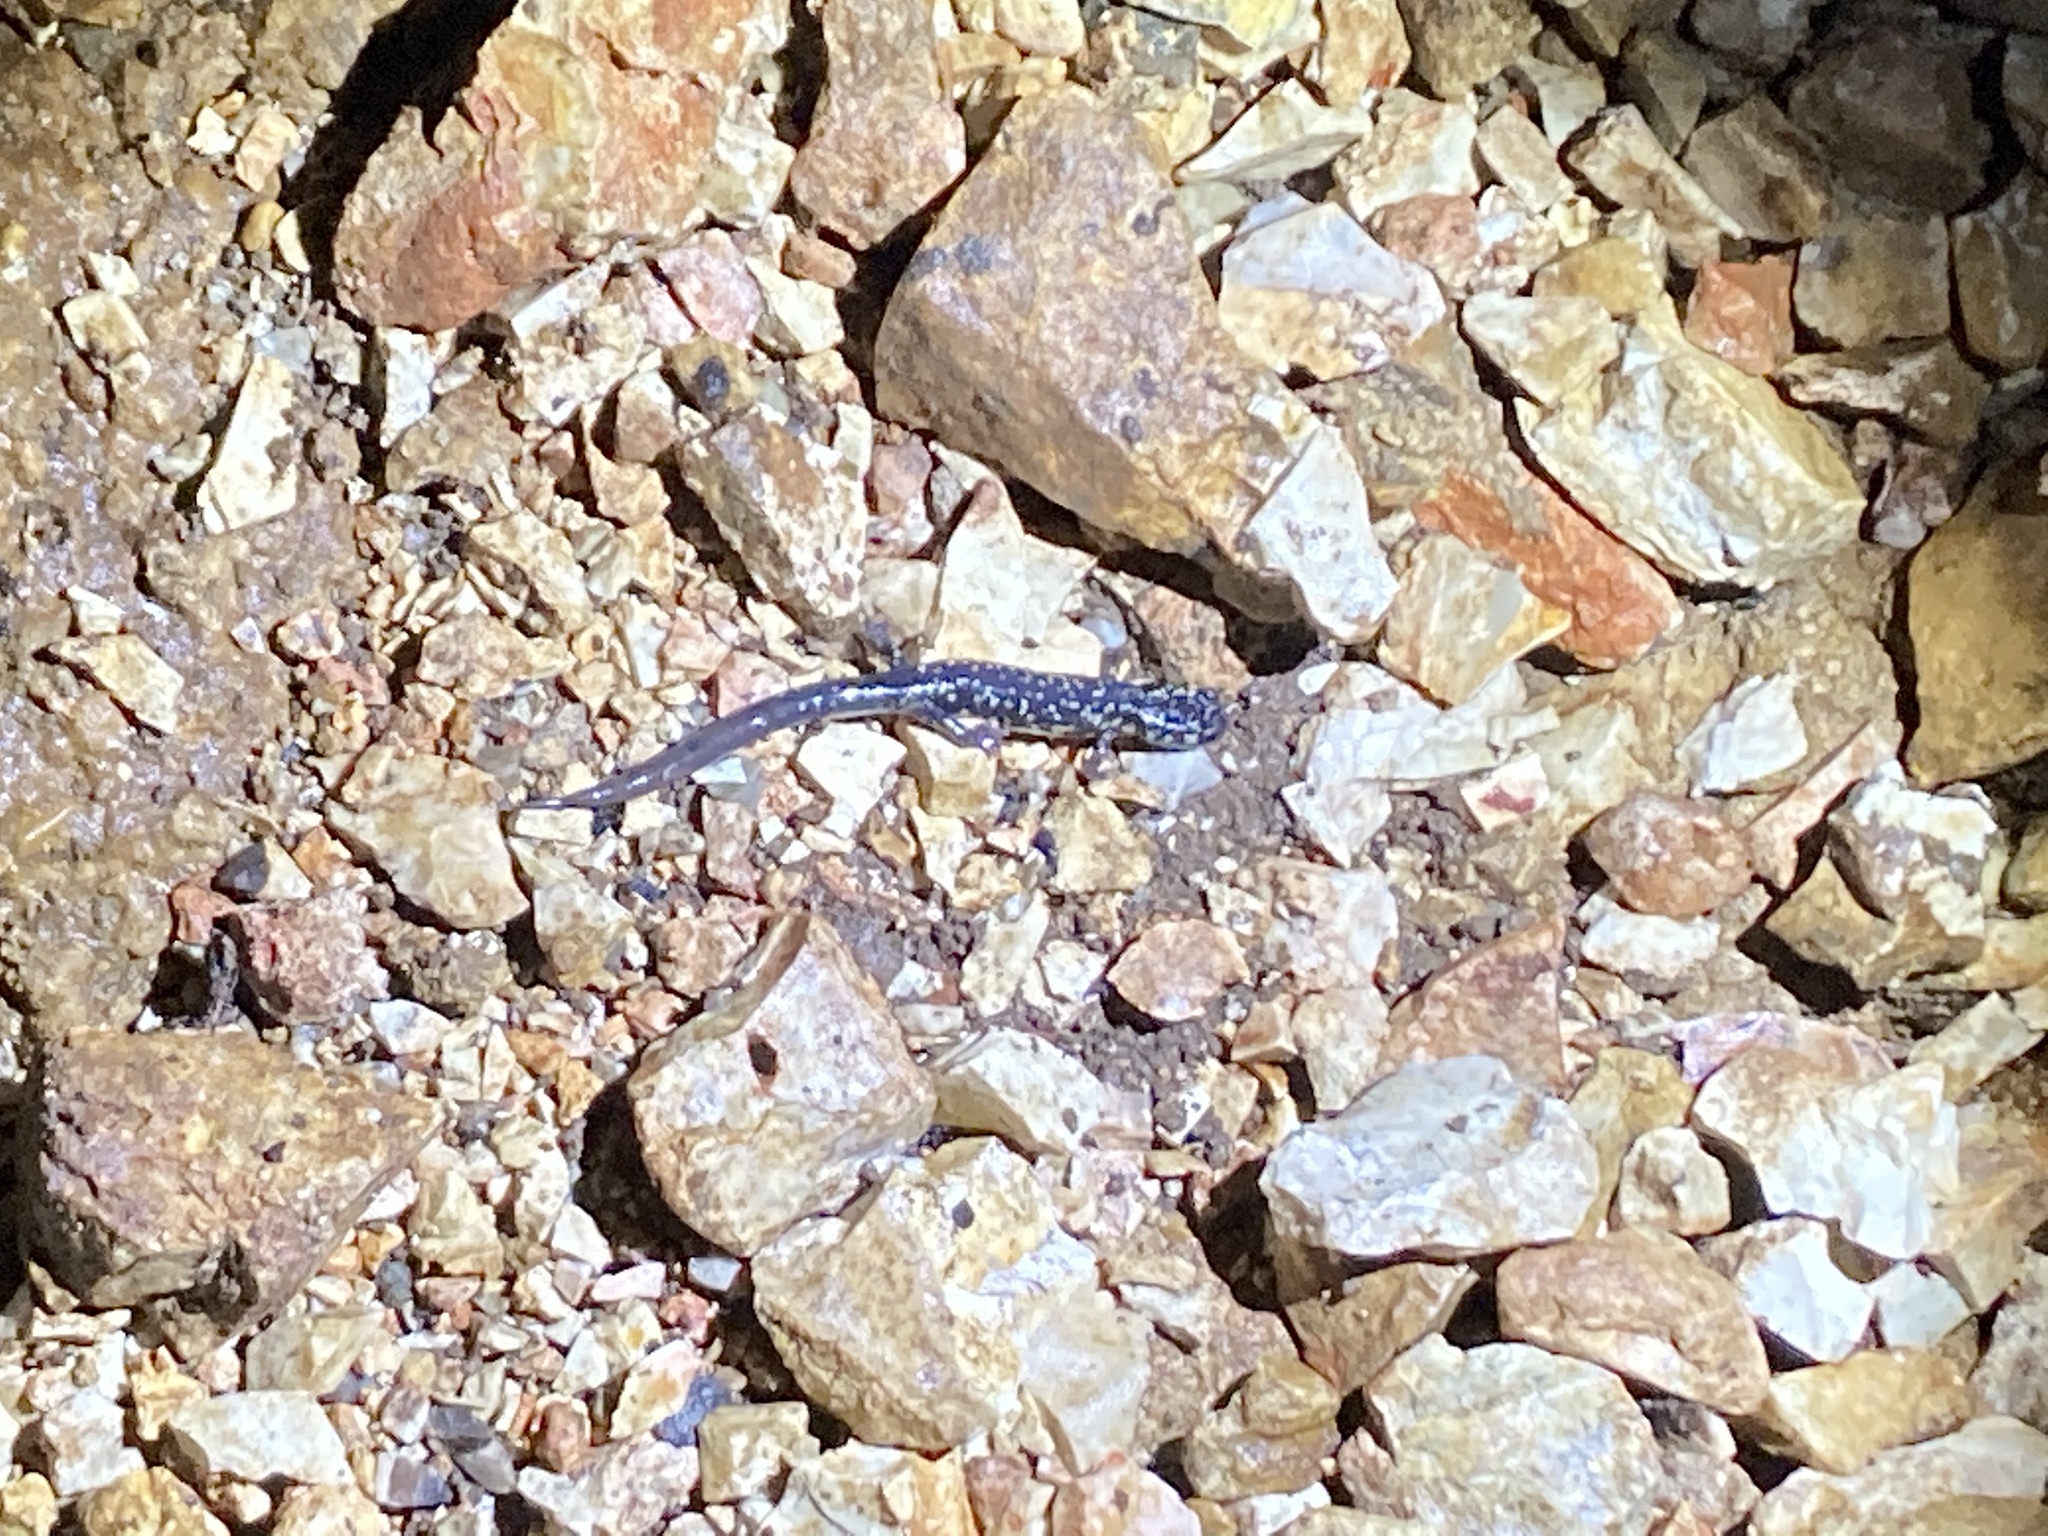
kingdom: Animalia
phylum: Chordata
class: Amphibia
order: Caudata
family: Plethodontidae
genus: Plethodon
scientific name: Plethodon albagula
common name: Western slimy salamander
